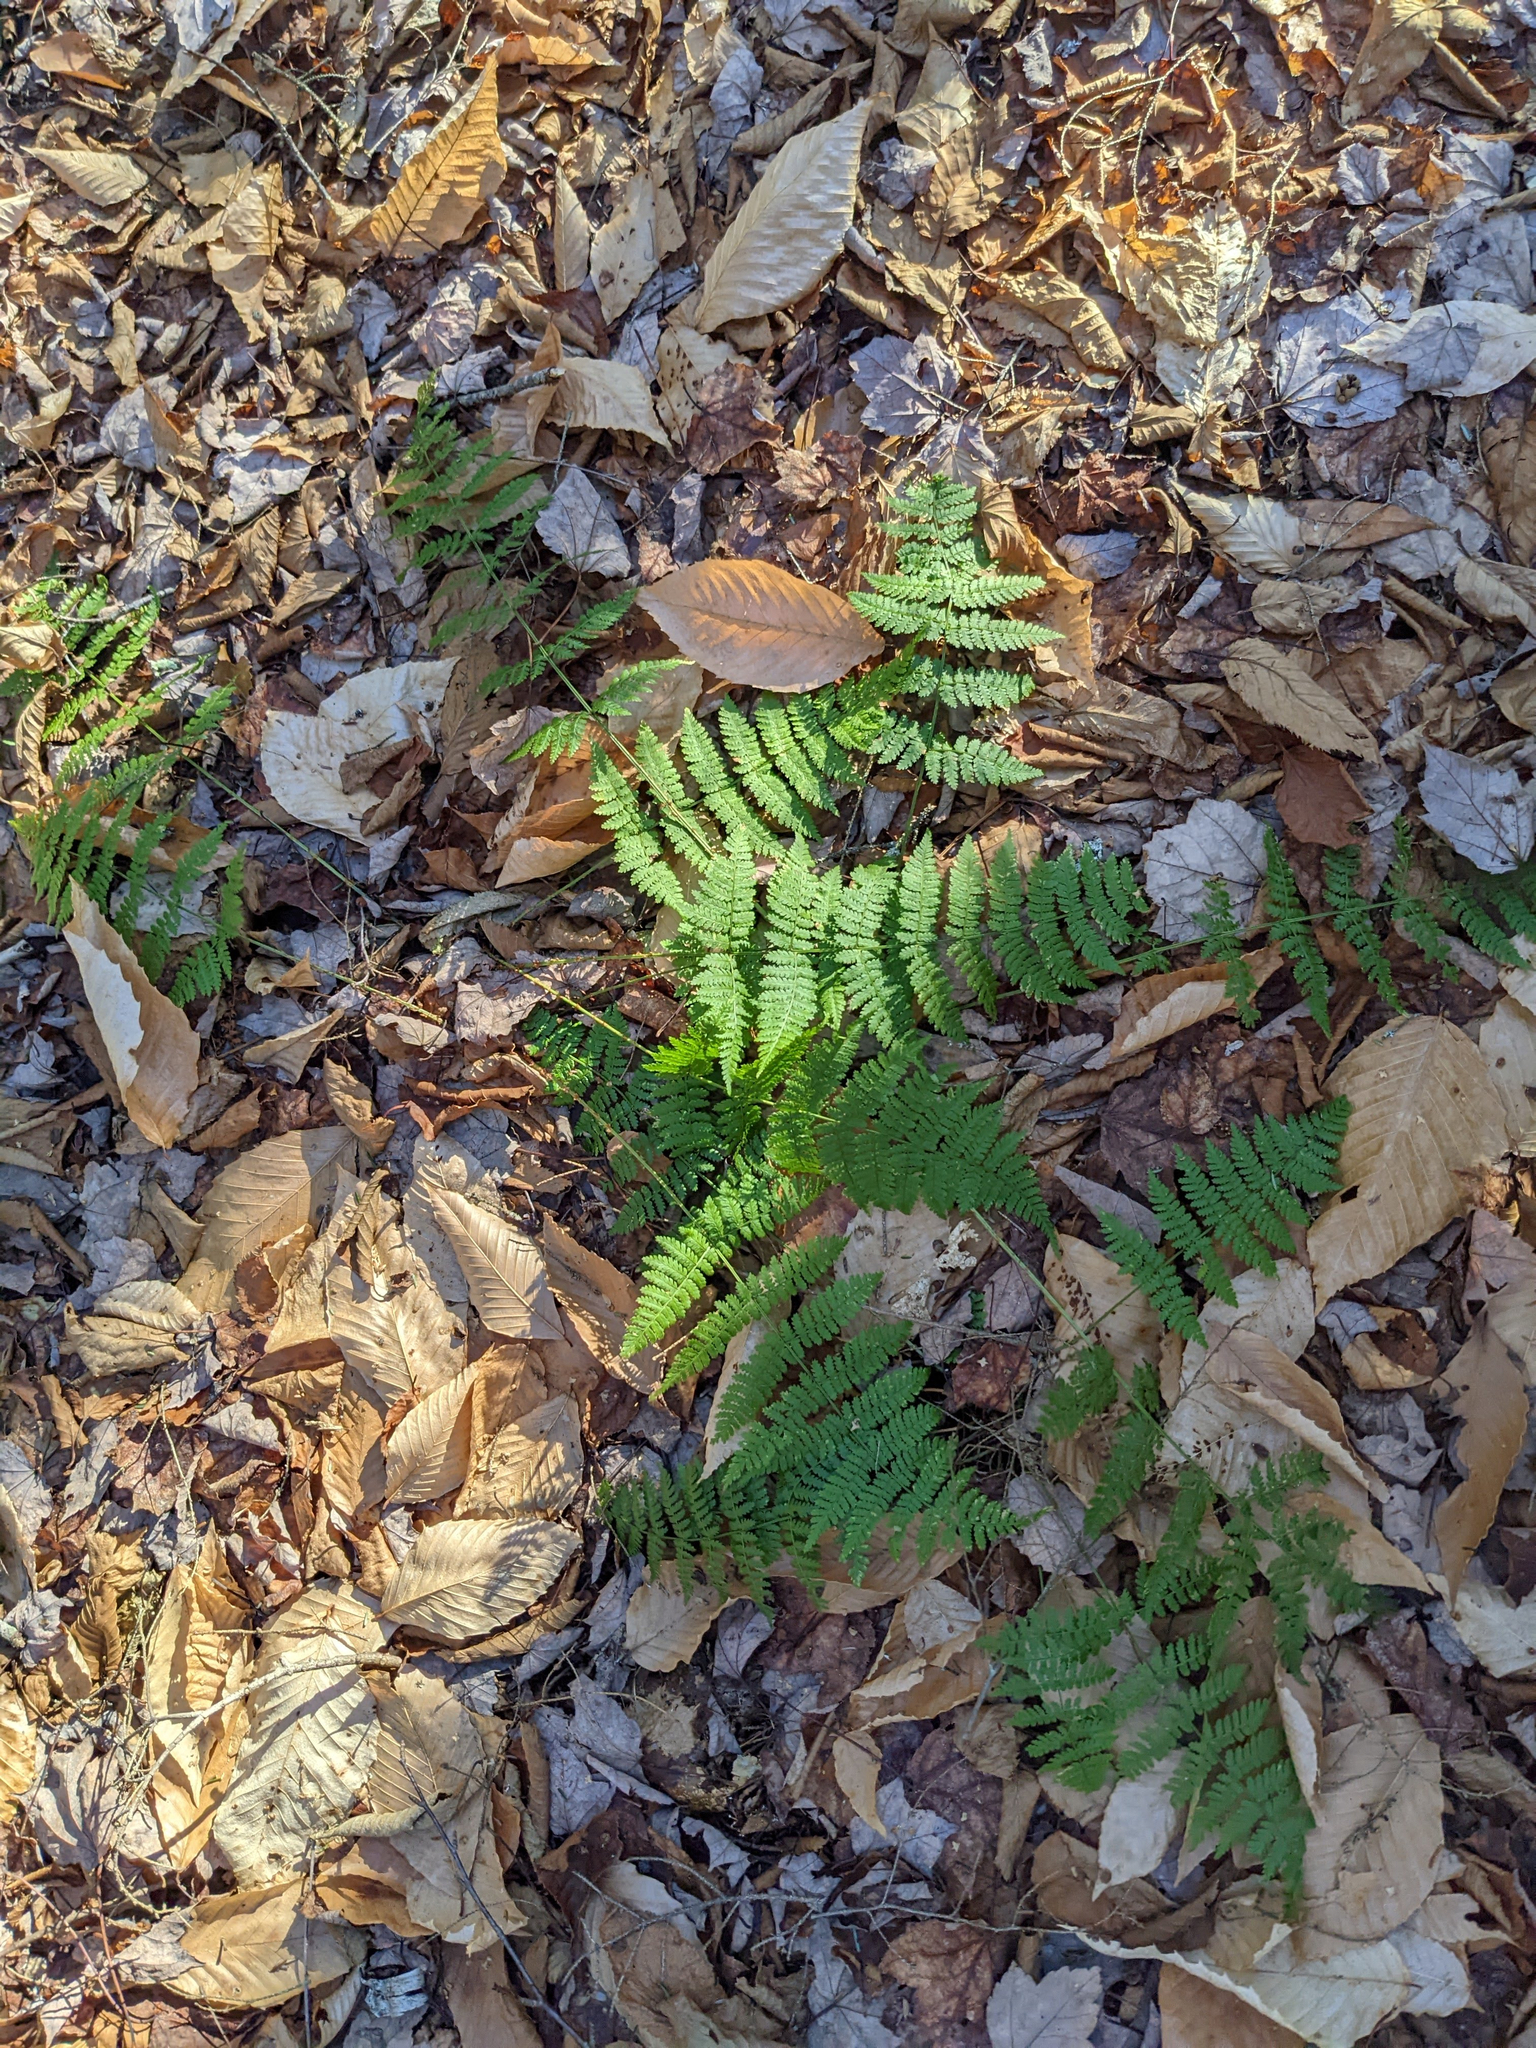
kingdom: Plantae
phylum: Tracheophyta
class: Polypodiopsida
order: Polypodiales
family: Dryopteridaceae
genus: Dryopteris
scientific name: Dryopteris intermedia
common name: Evergreen wood fern
